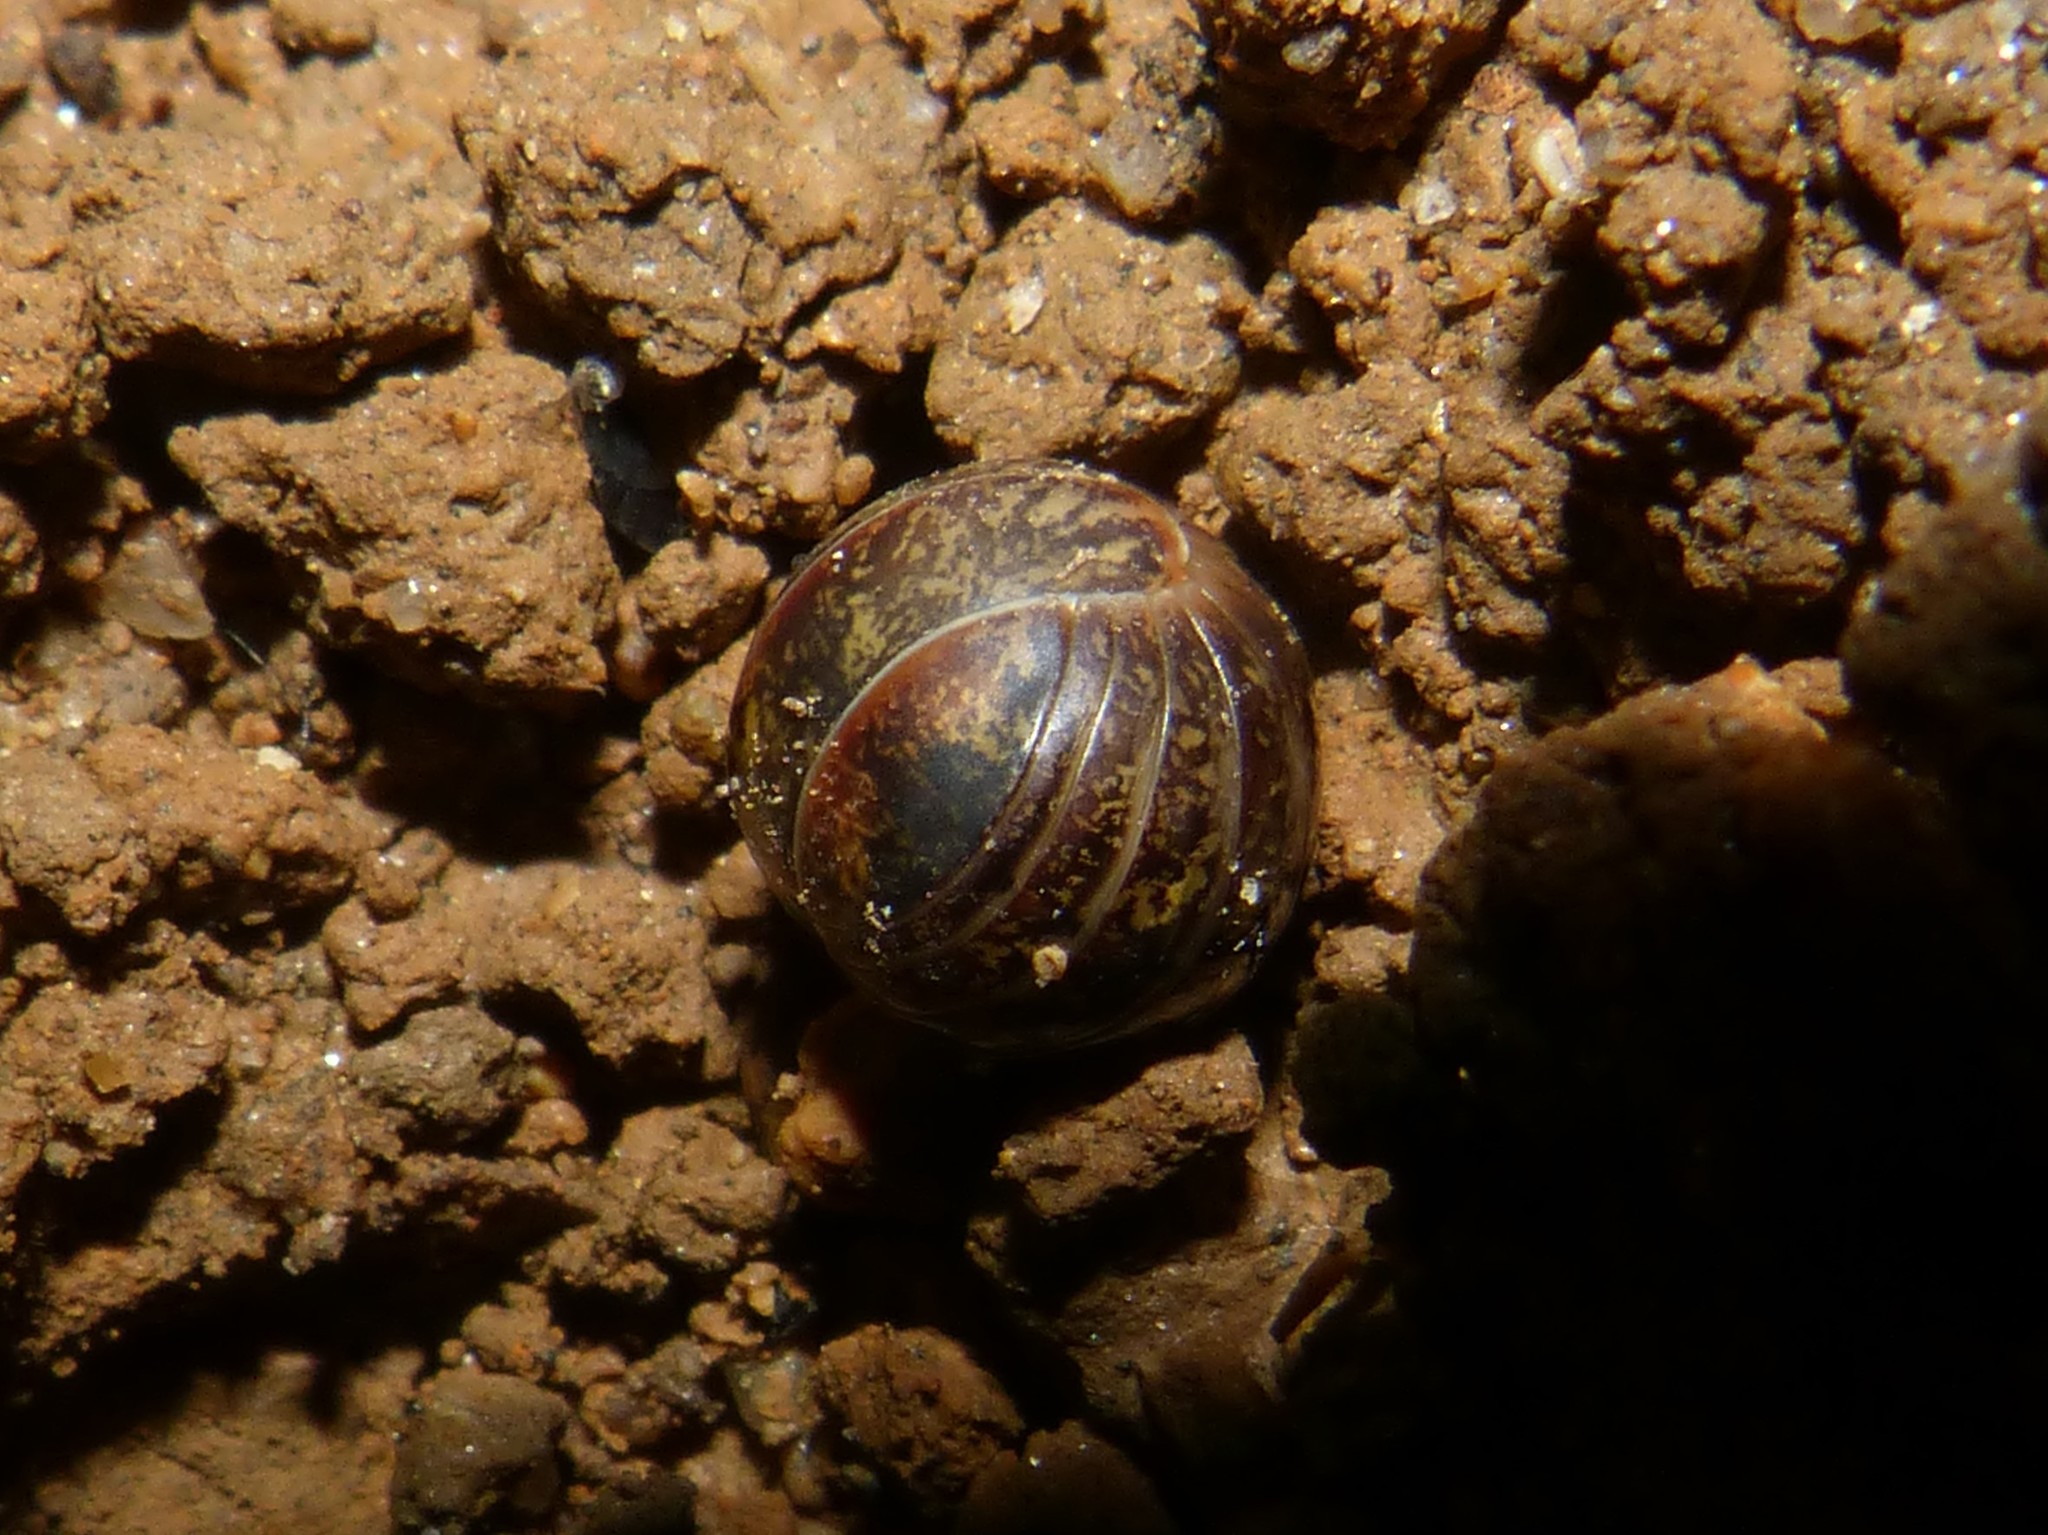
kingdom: Animalia
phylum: Arthropoda
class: Diplopoda
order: Glomerida
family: Glomeridae
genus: Glomeris
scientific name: Glomeris klugii
